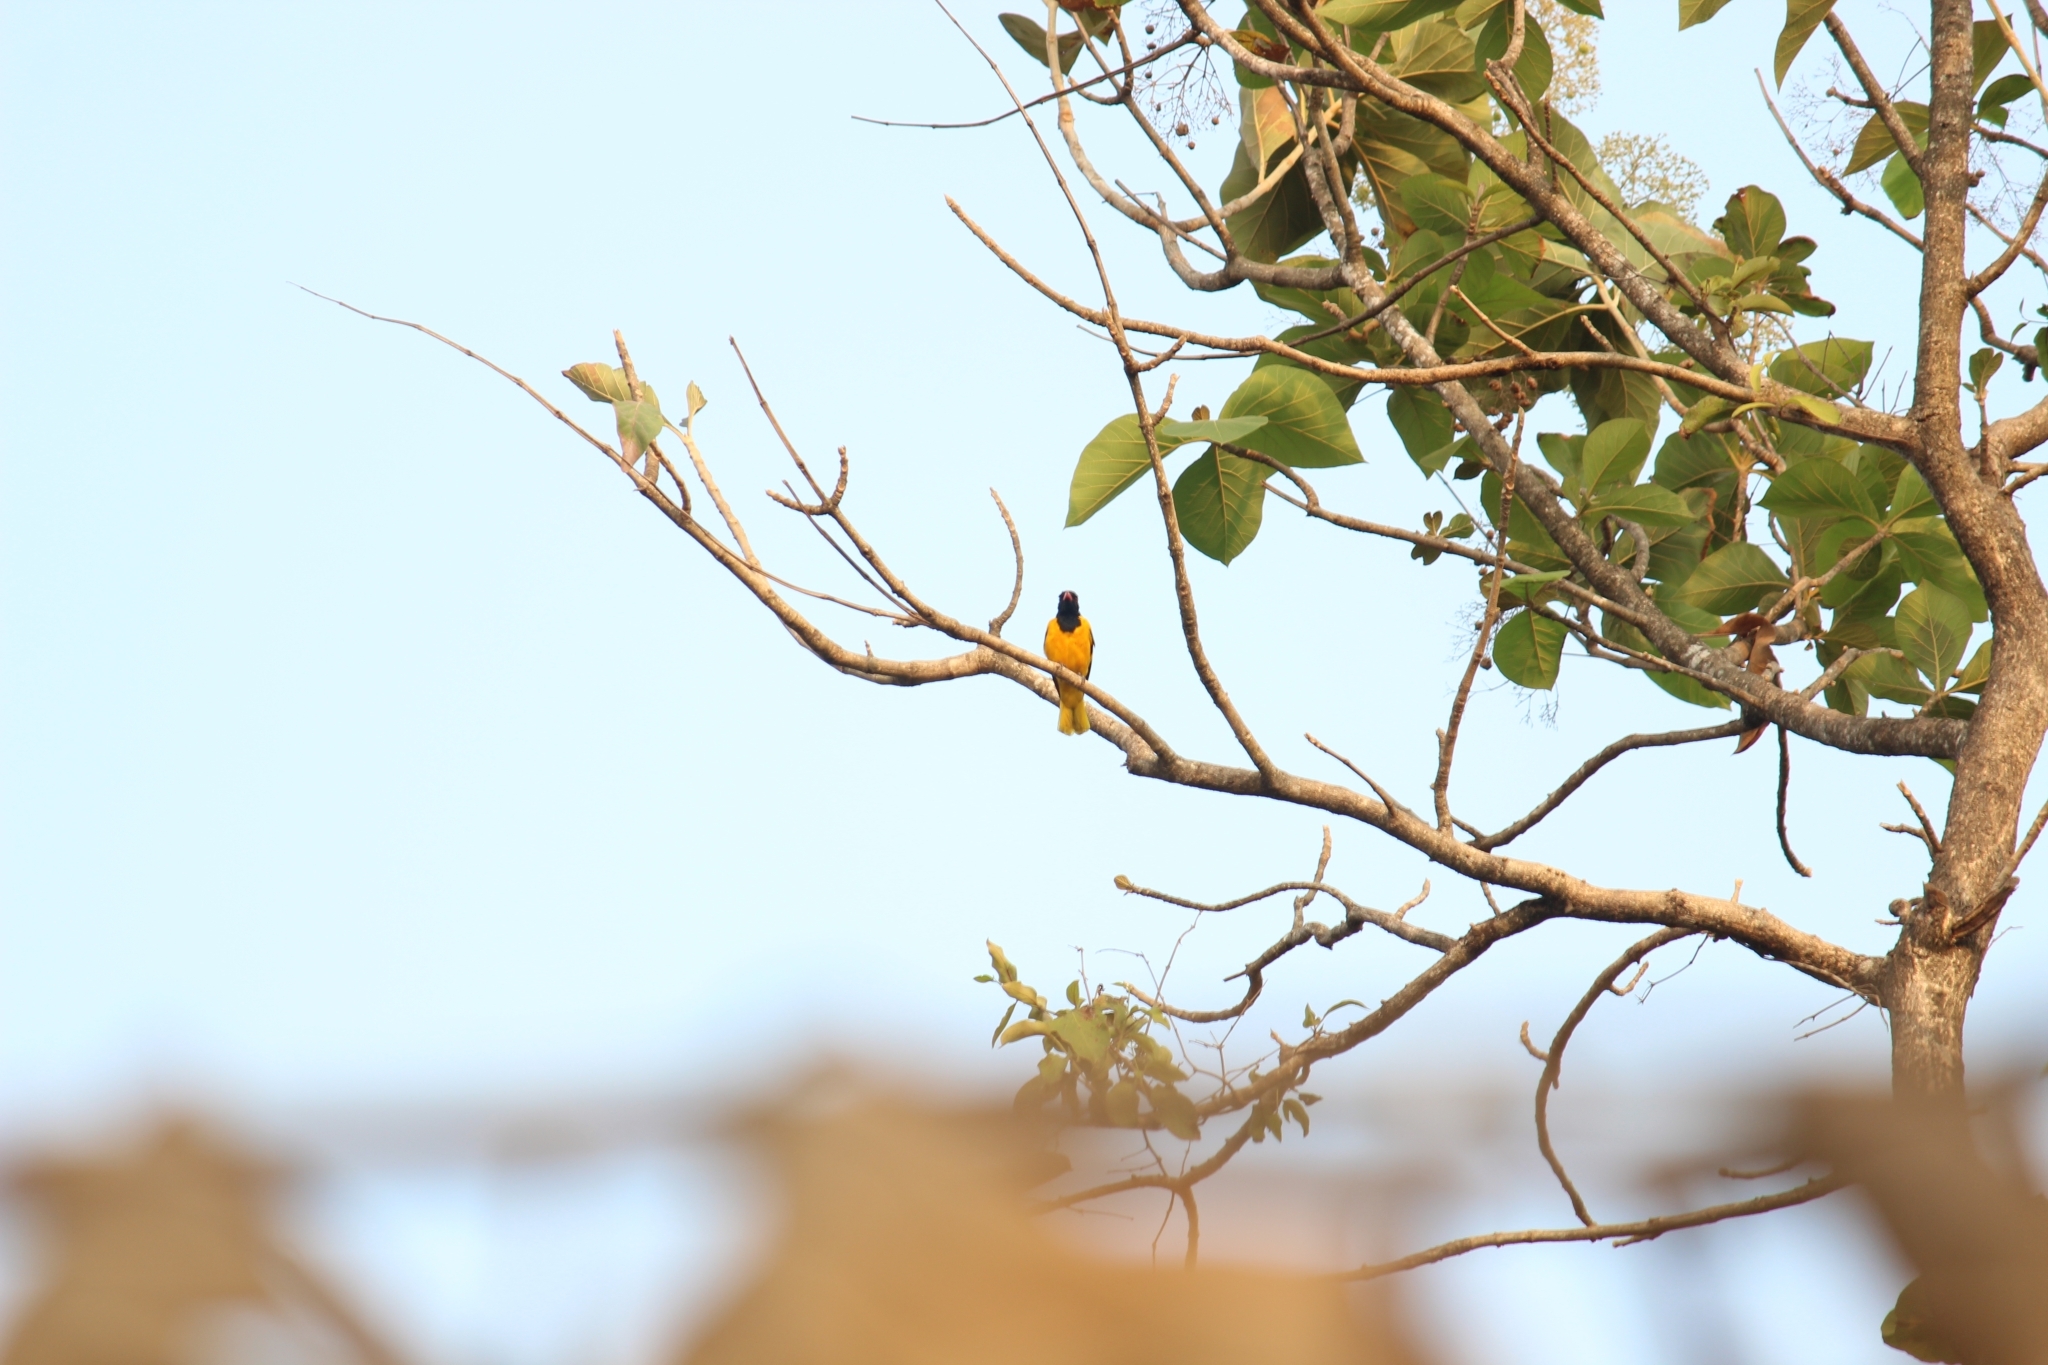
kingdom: Animalia
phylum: Chordata
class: Aves
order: Passeriformes
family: Oriolidae
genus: Oriolus
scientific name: Oriolus xanthornus
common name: Black-hooded oriole
